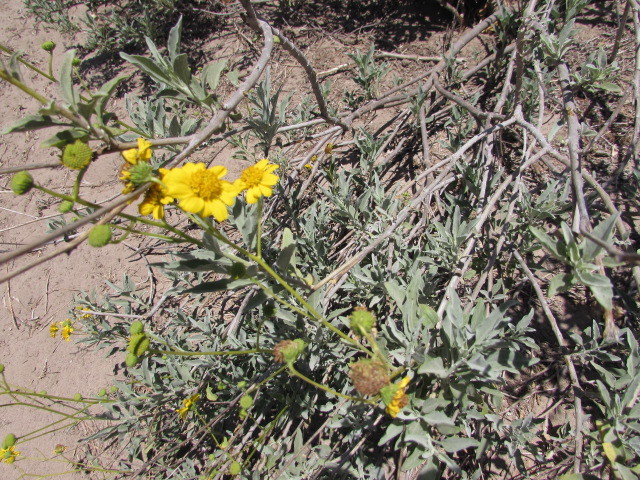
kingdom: Plantae
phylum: Tracheophyta
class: Magnoliopsida
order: Asterales
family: Asteraceae
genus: Encelia
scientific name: Encelia farinosa
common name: Brittlebush
